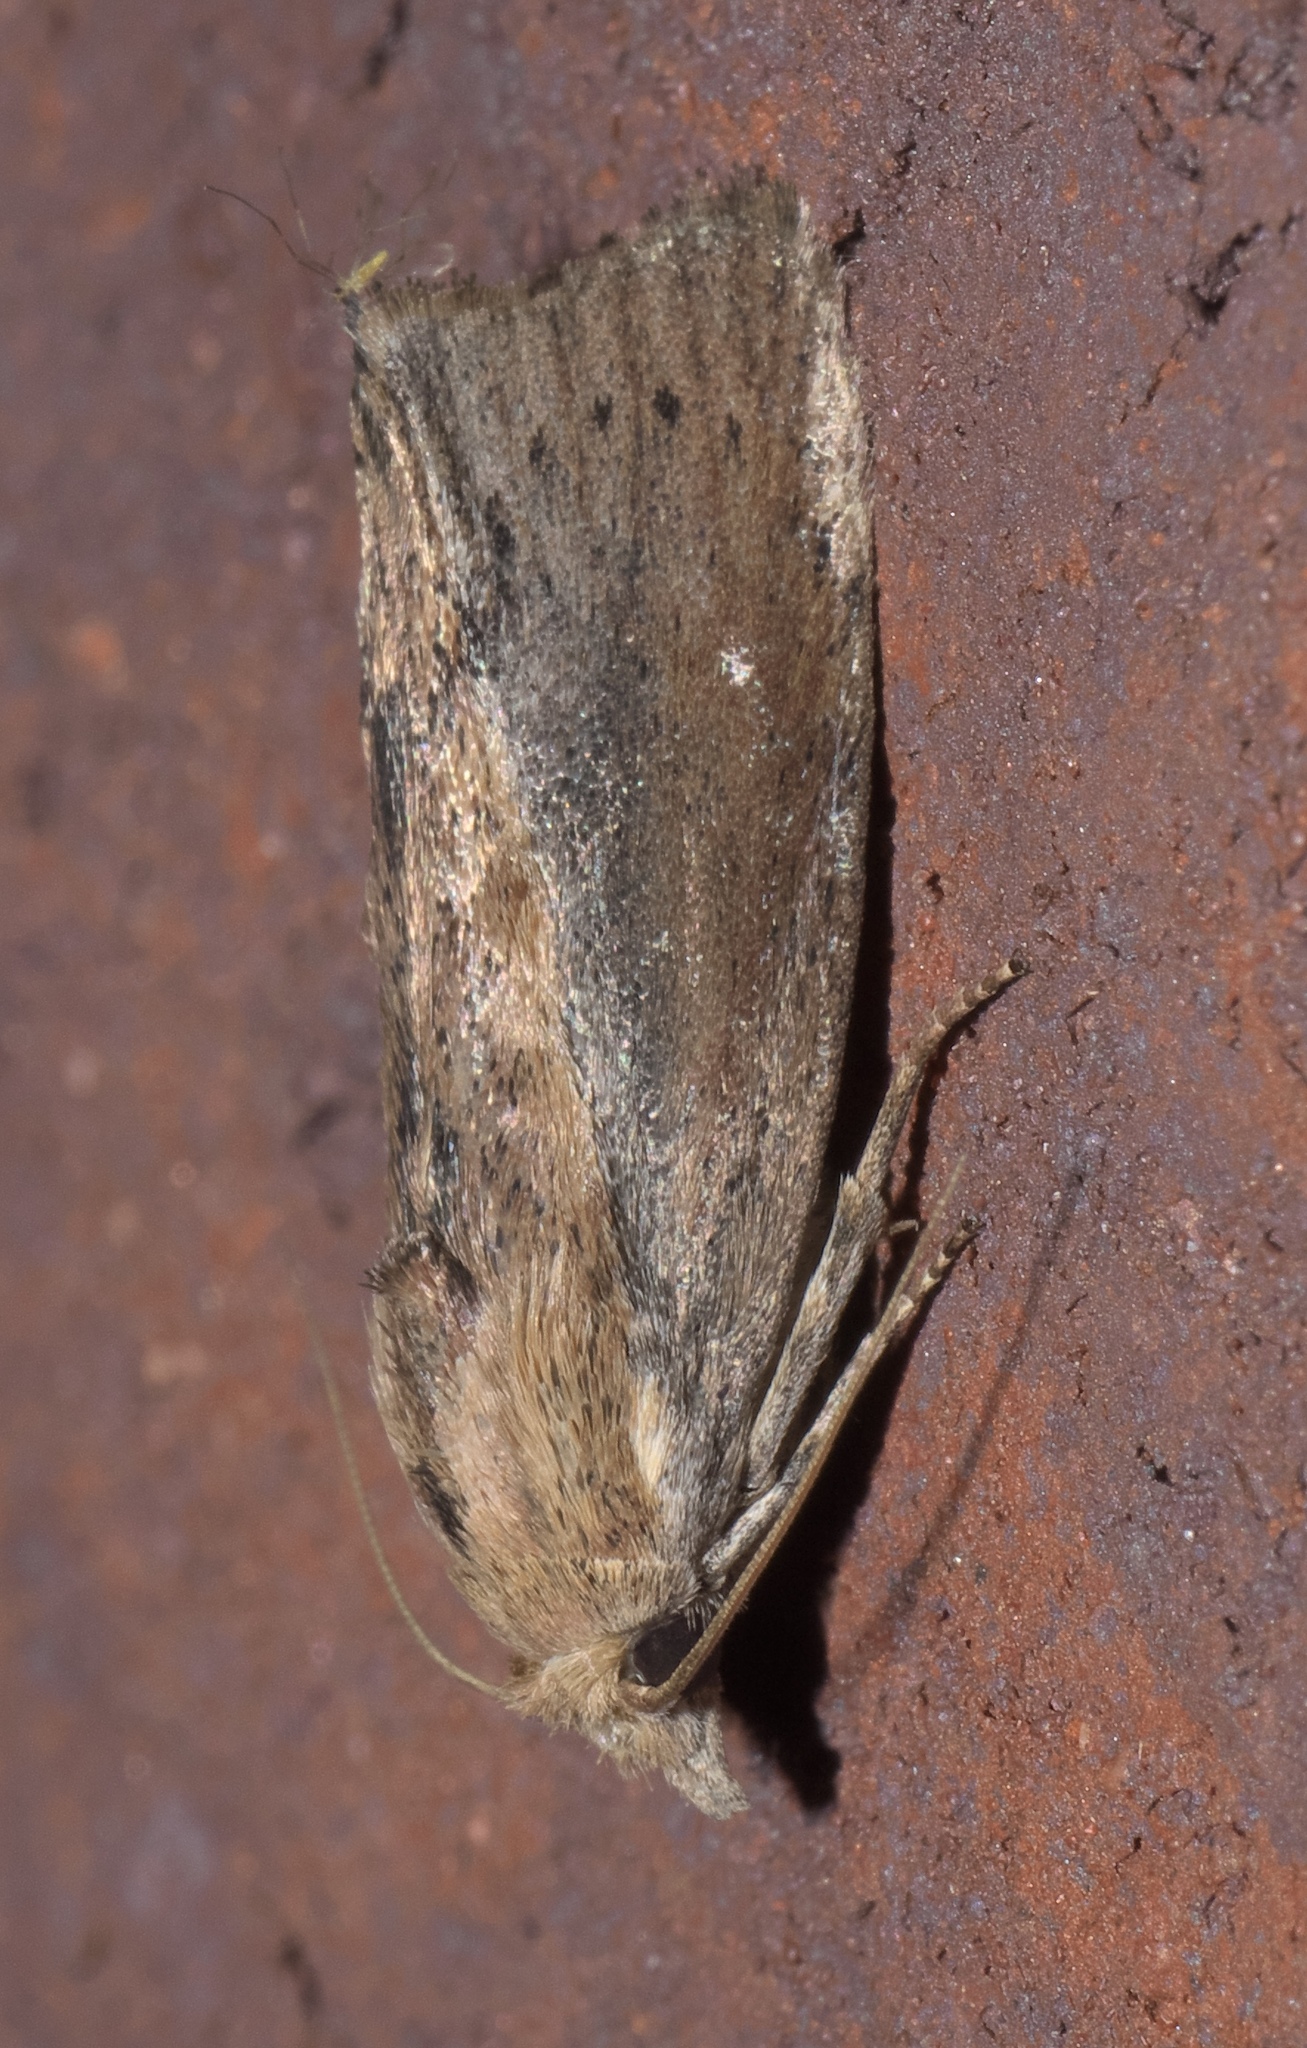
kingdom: Animalia
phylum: Arthropoda
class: Insecta
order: Lepidoptera
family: Pyralidae
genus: Galleria
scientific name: Galleria mellonella
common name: Greater wax moth
